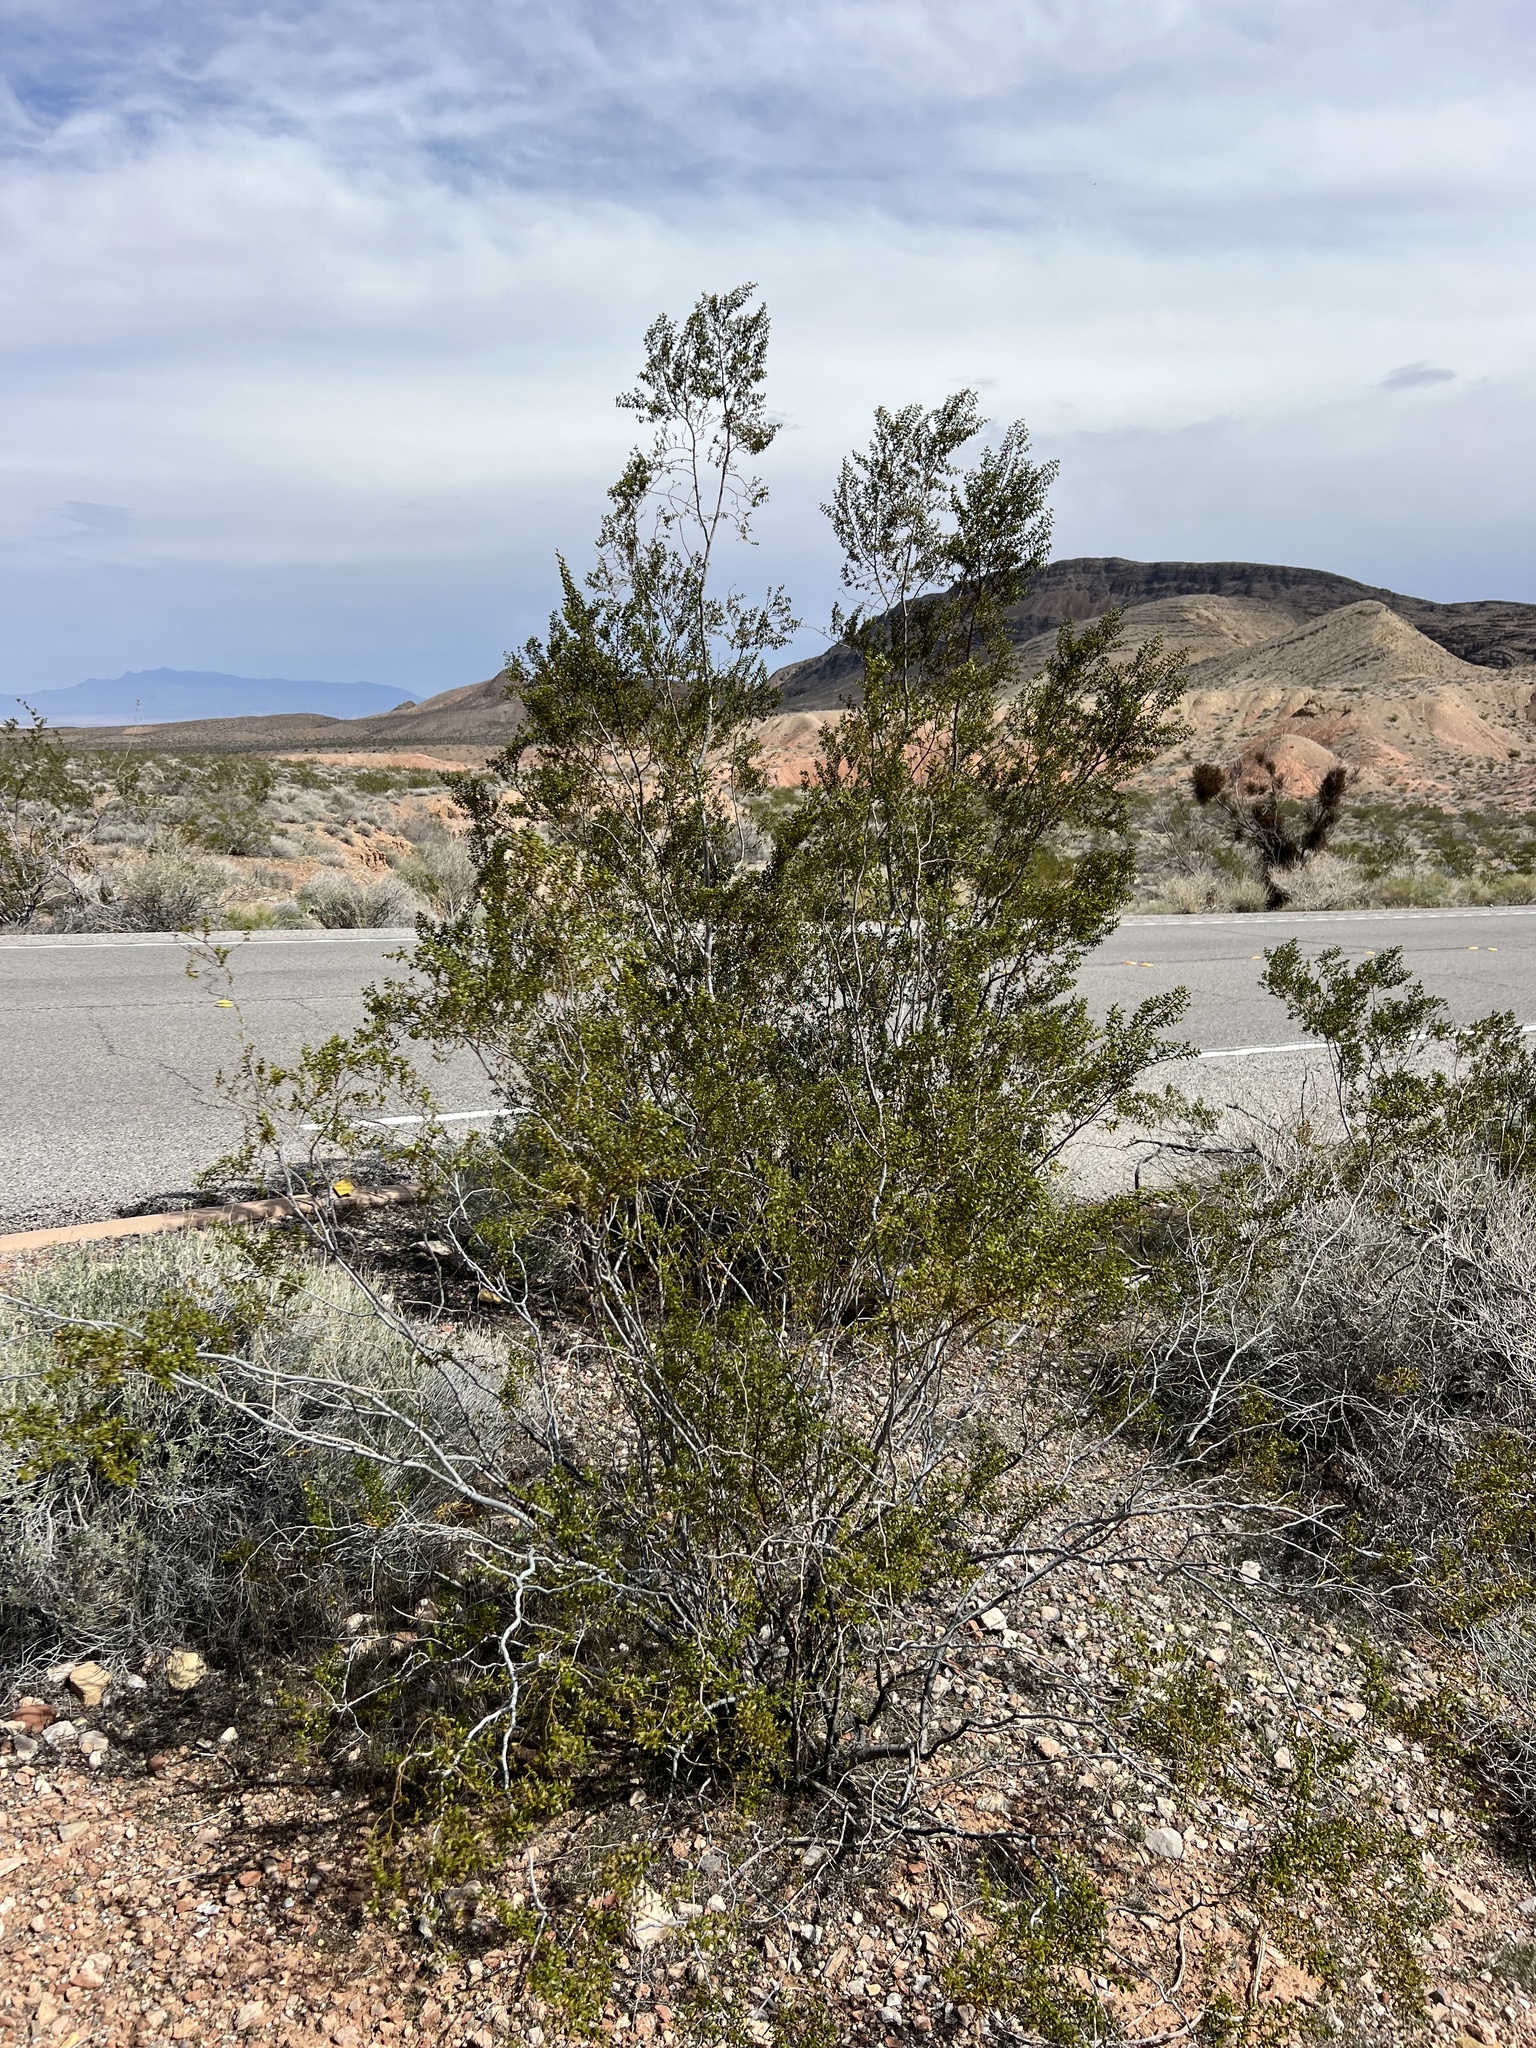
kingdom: Plantae
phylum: Tracheophyta
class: Magnoliopsida
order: Zygophyllales
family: Zygophyllaceae
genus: Larrea
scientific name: Larrea tridentata
